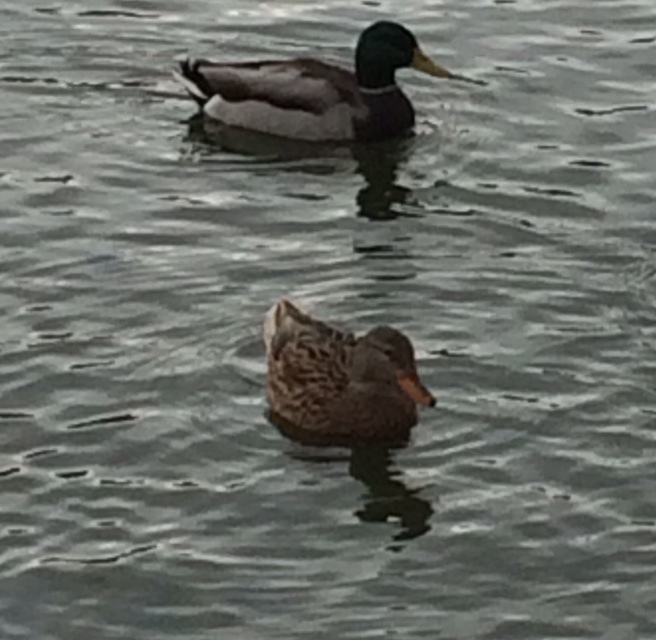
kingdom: Animalia
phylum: Chordata
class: Aves
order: Anseriformes
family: Anatidae
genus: Anas
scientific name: Anas platyrhynchos
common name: Mallard
